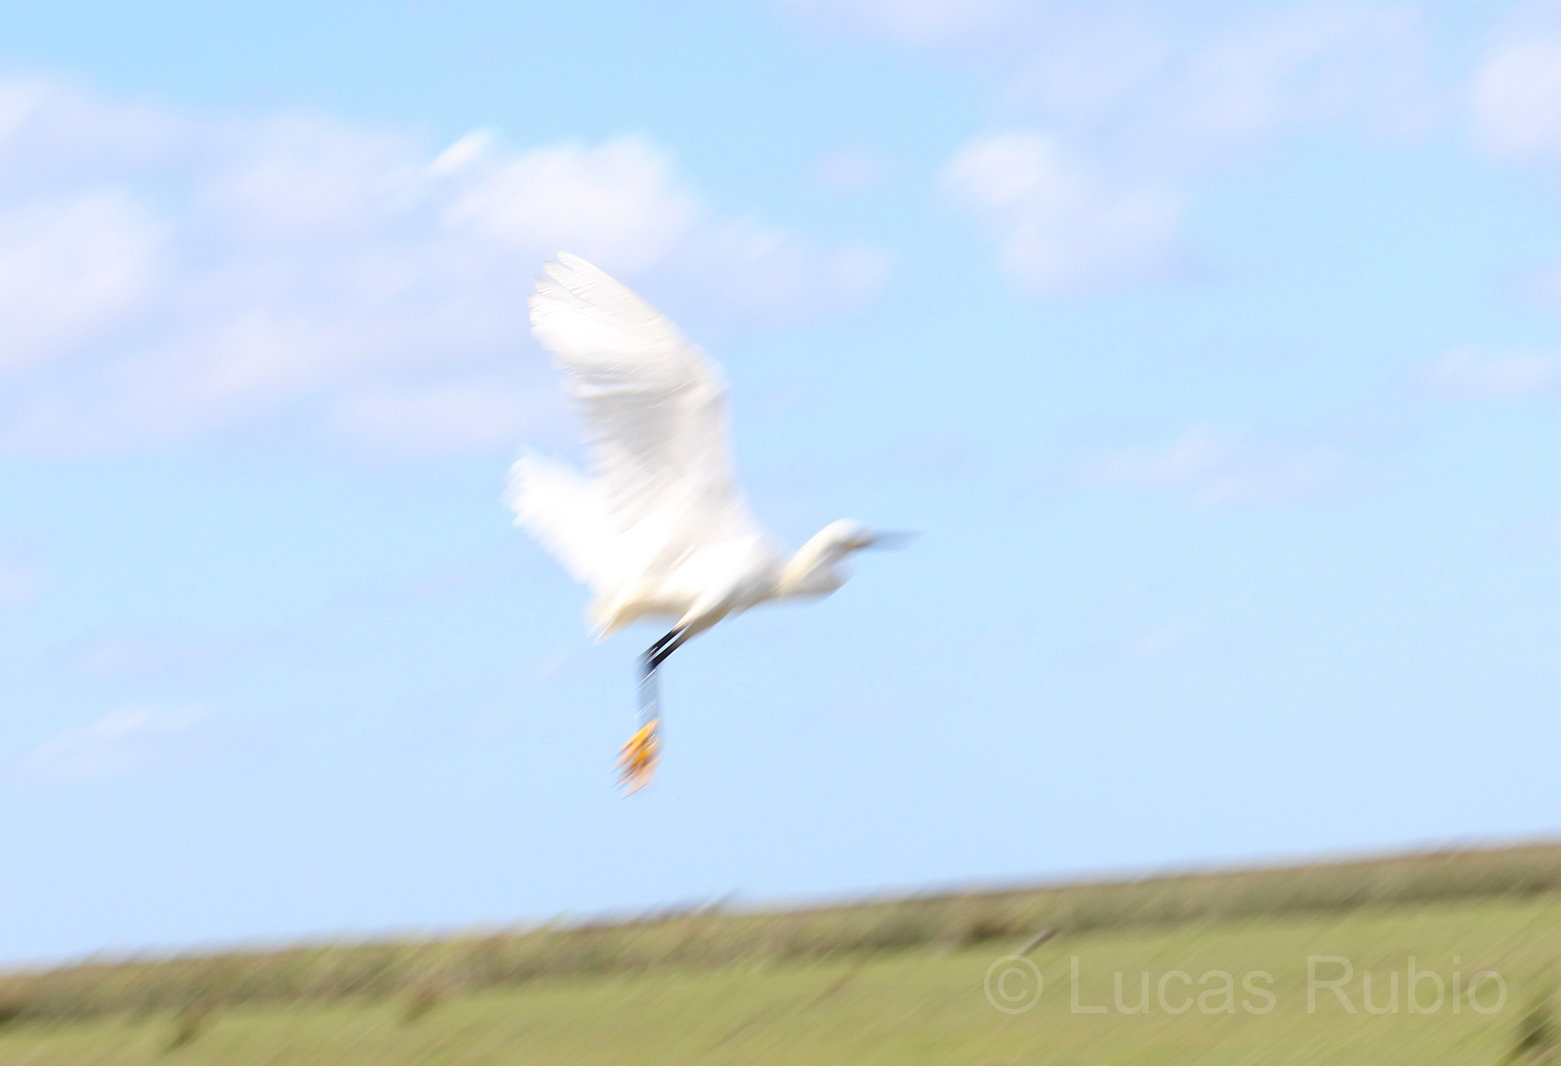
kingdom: Animalia
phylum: Chordata
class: Aves
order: Pelecaniformes
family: Ardeidae
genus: Egretta
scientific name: Egretta thula
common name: Snowy egret
